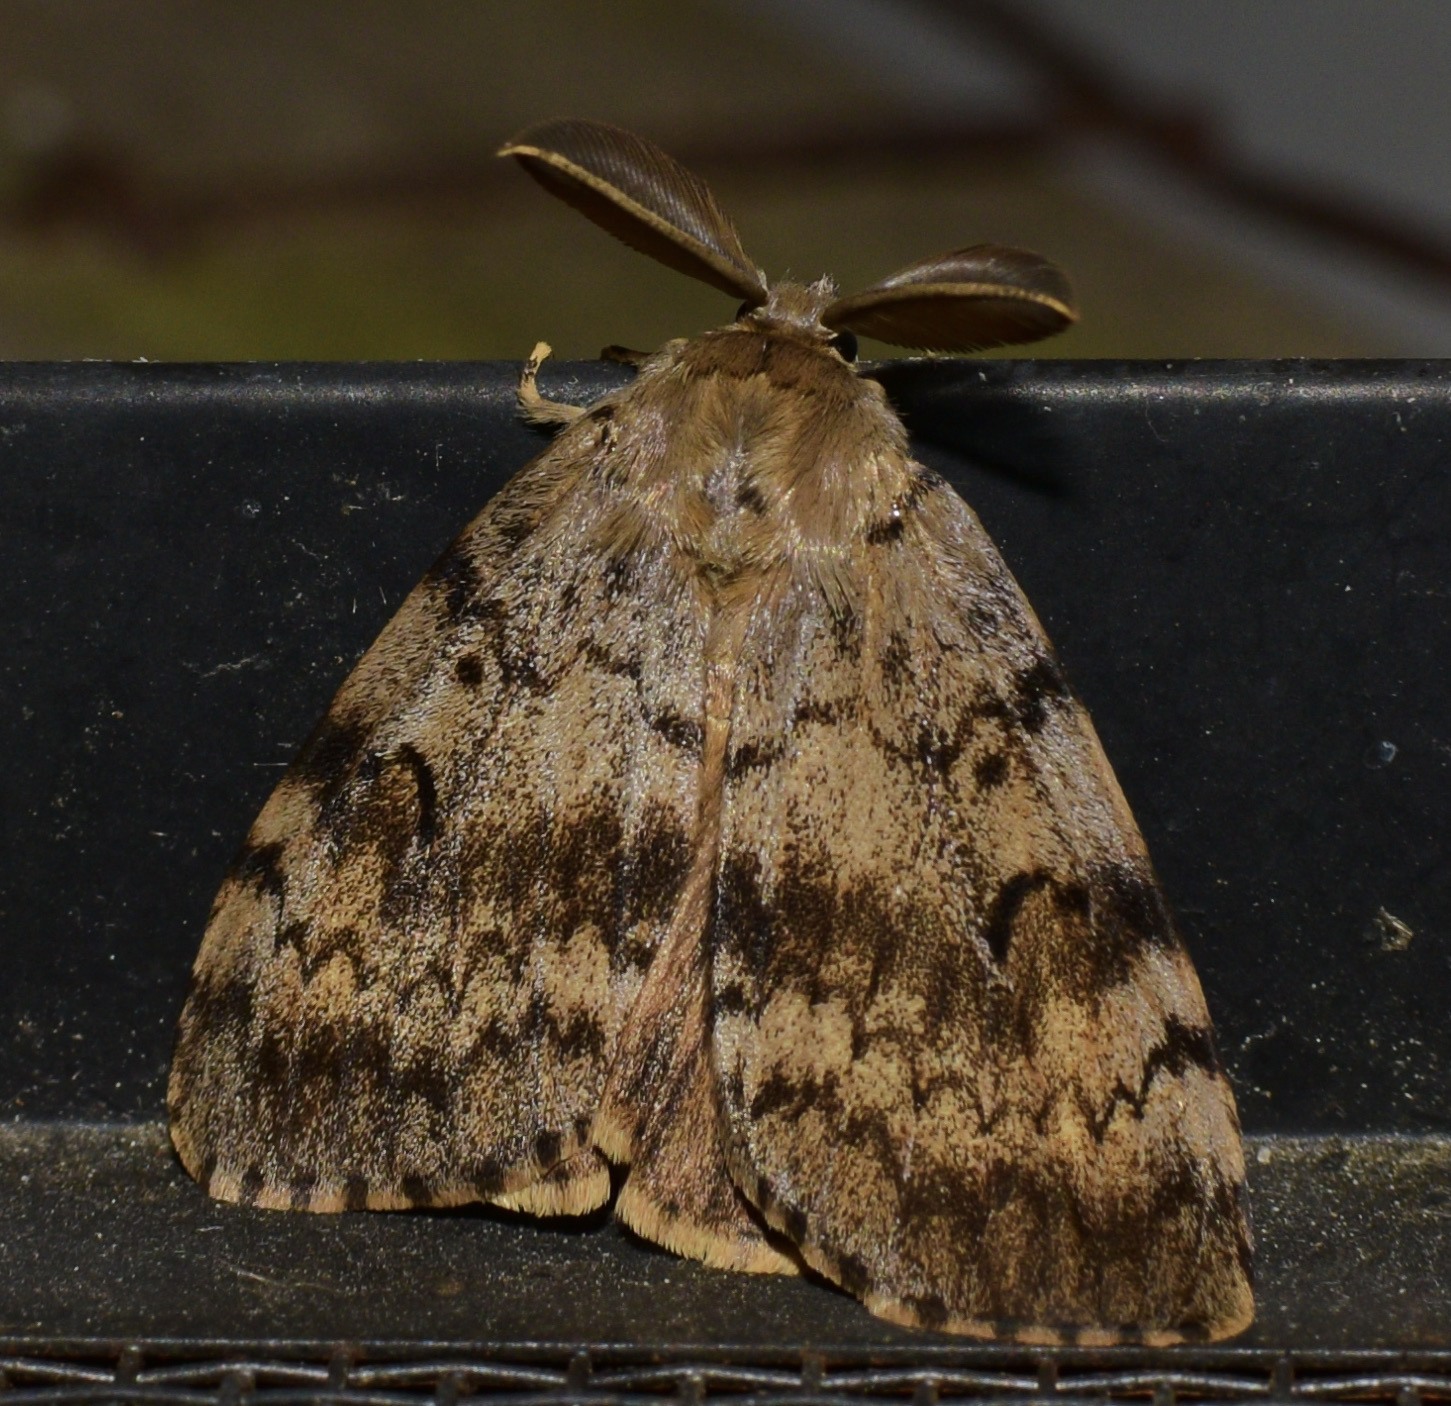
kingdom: Animalia
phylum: Arthropoda
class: Insecta
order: Lepidoptera
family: Erebidae
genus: Lymantria
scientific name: Lymantria dispar
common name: Gypsy moth
